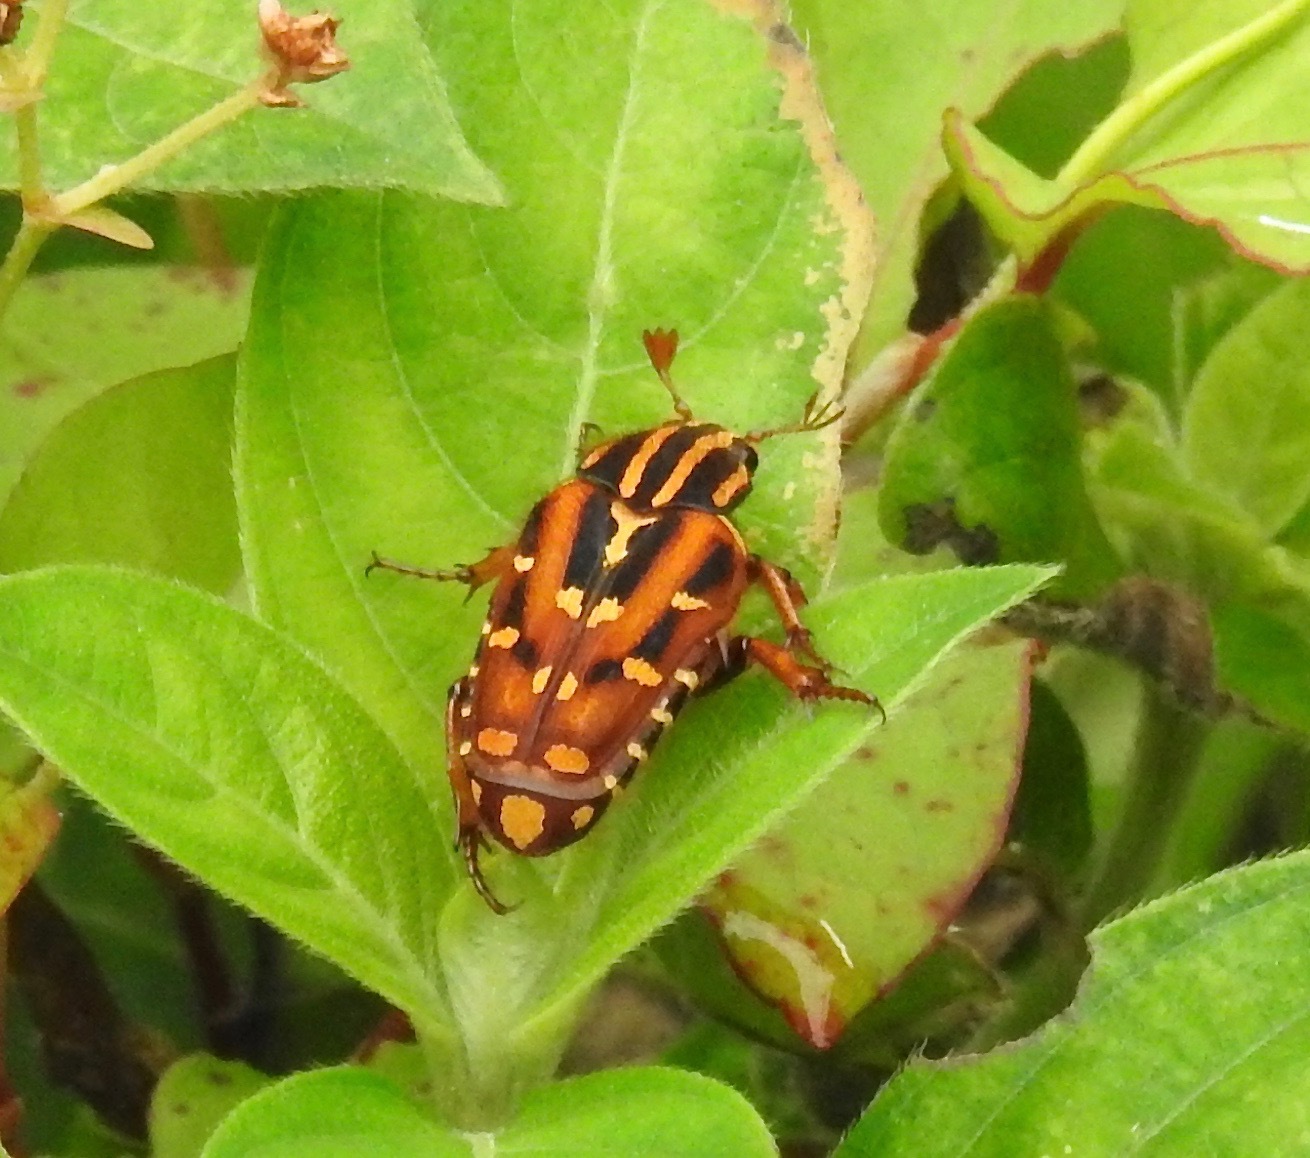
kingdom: Animalia
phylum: Arthropoda
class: Insecta
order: Coleoptera
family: Scarabaeidae
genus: Euselates
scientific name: Euselates magna
